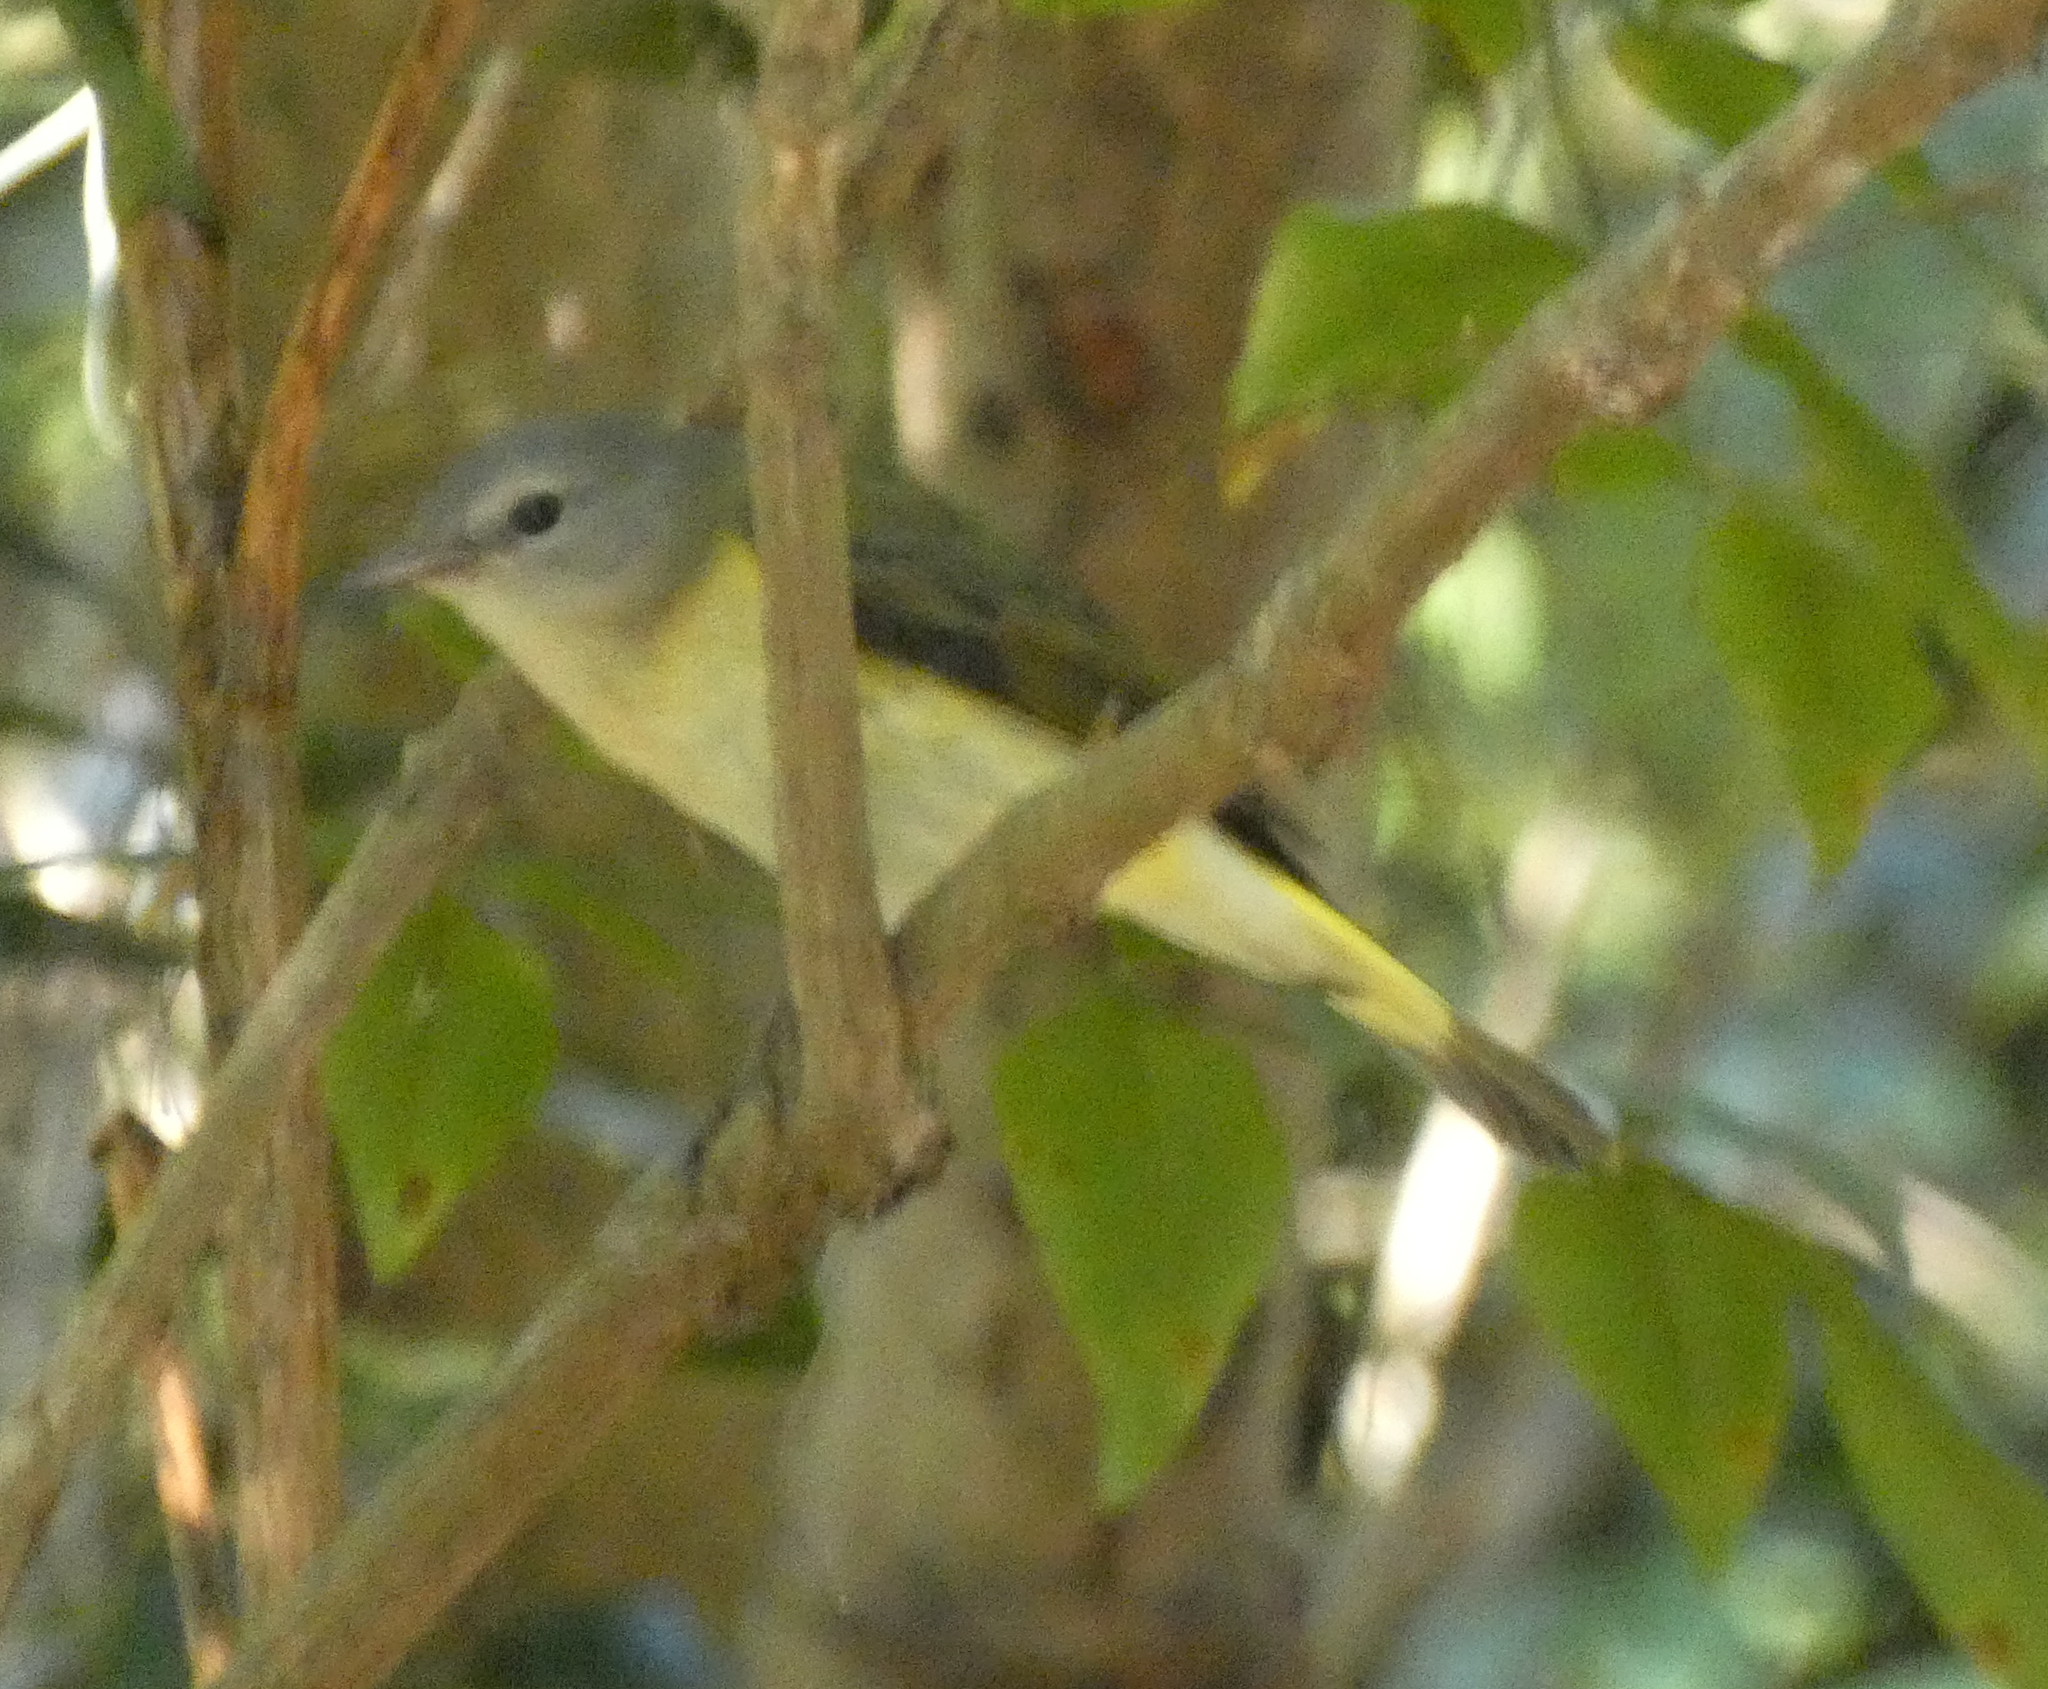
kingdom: Animalia
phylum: Chordata
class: Aves
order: Passeriformes
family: Parulidae
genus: Setophaga
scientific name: Setophaga ruticilla
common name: American redstart
